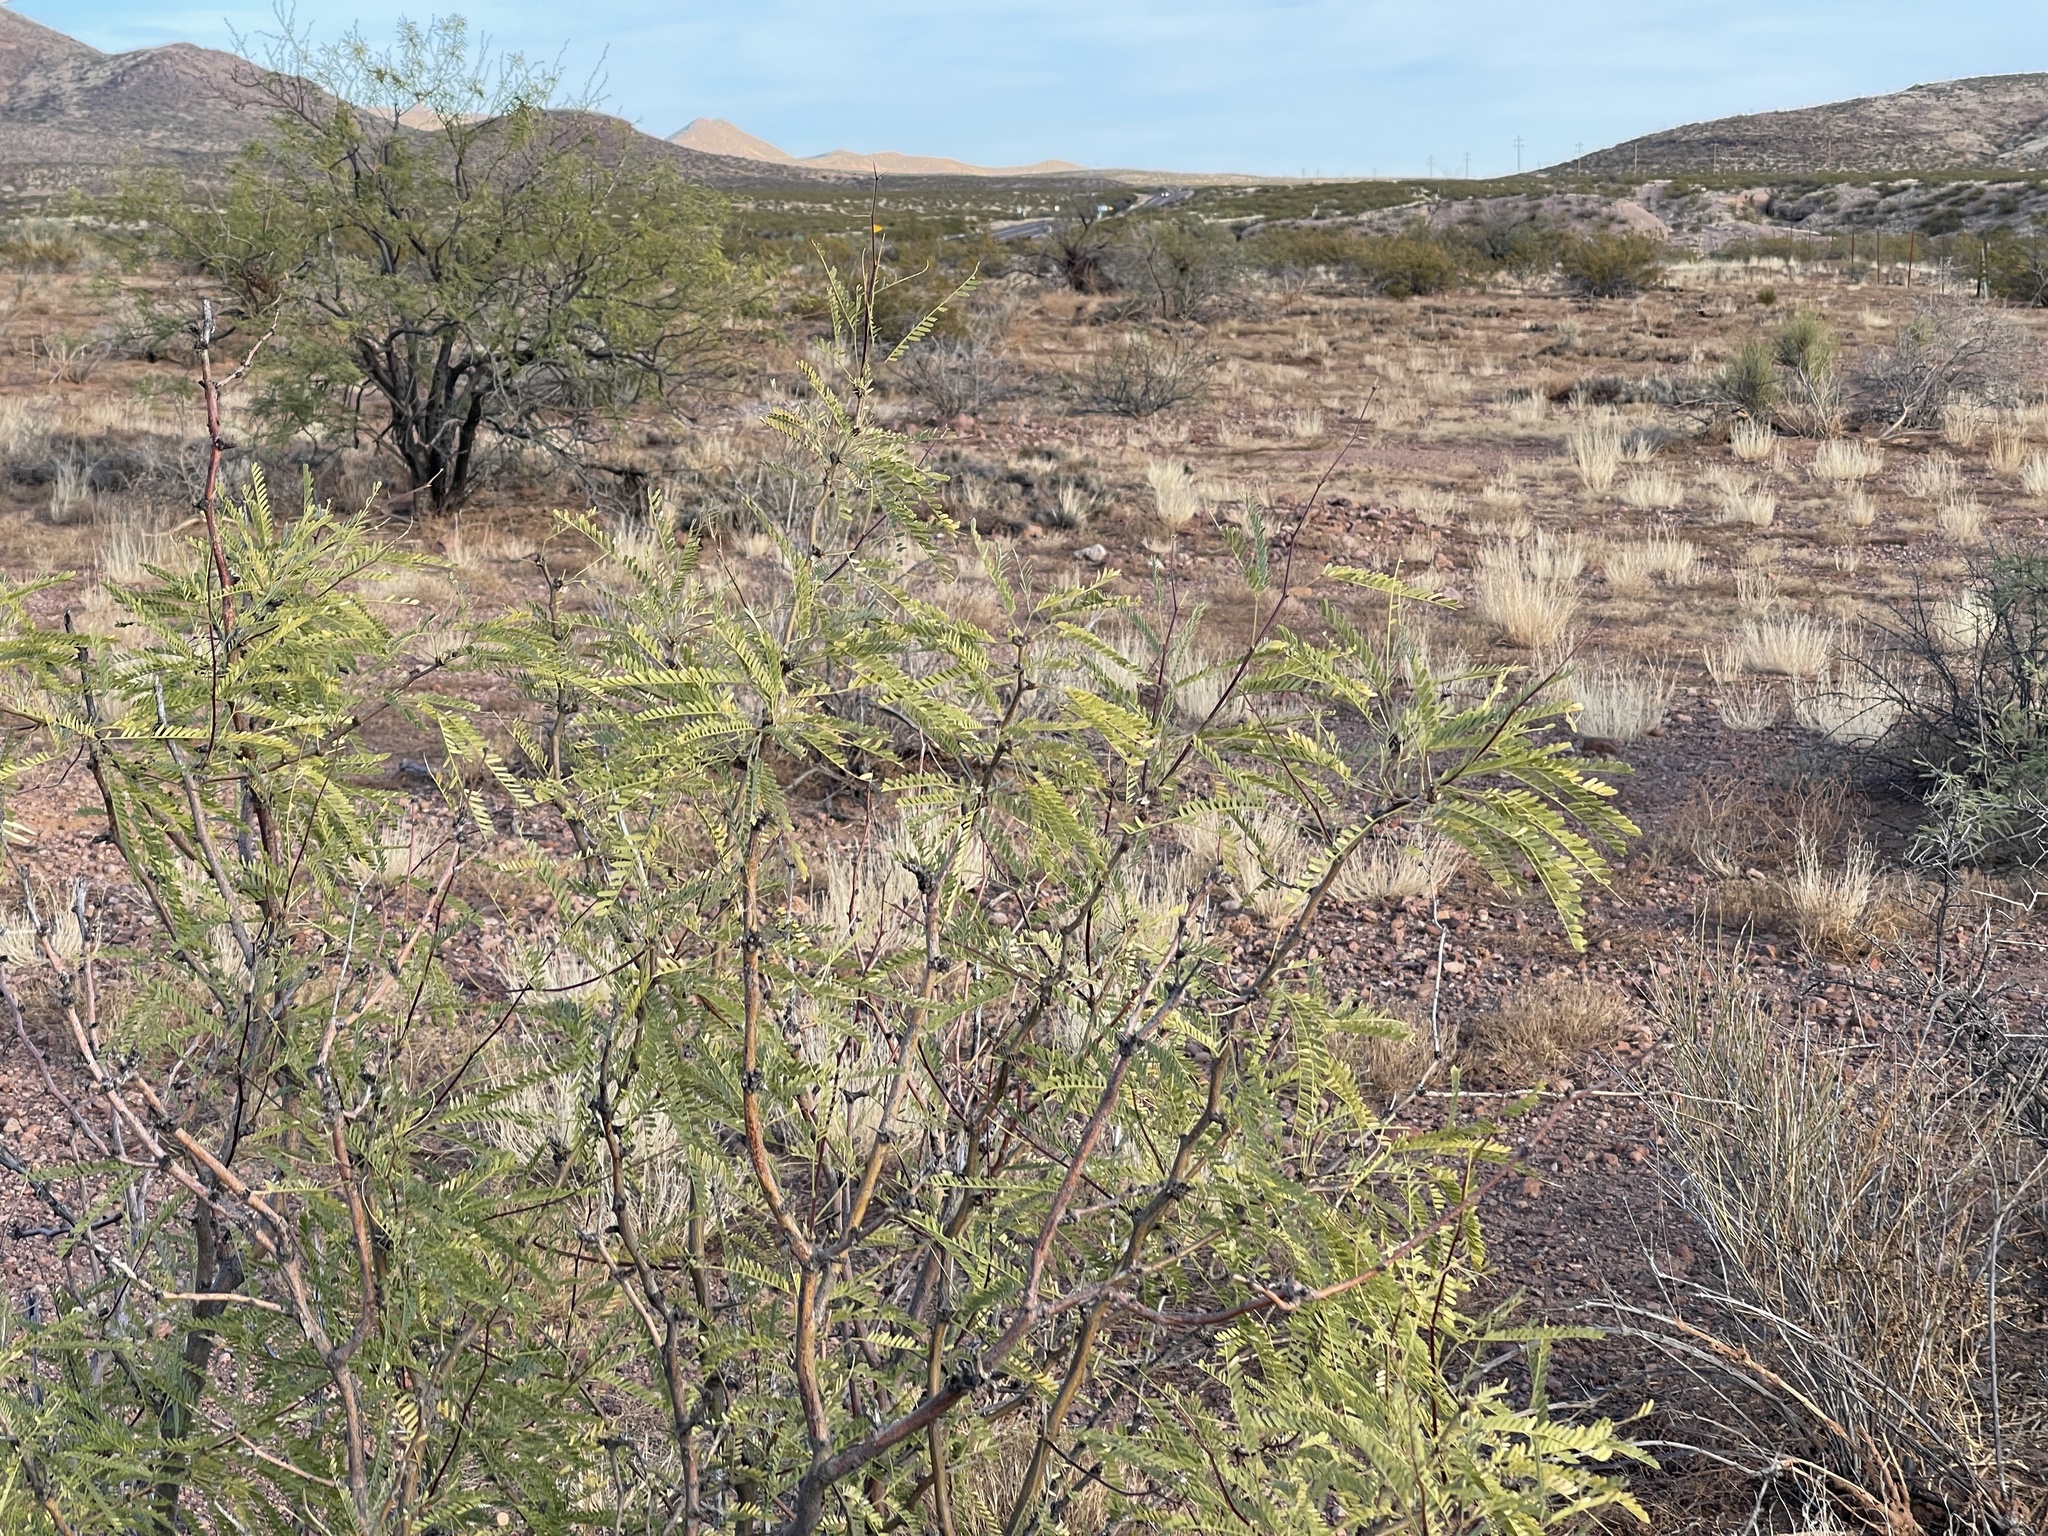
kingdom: Plantae
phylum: Tracheophyta
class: Magnoliopsida
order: Fabales
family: Fabaceae
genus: Prosopis
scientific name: Prosopis velutina
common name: Velvet mesquite
